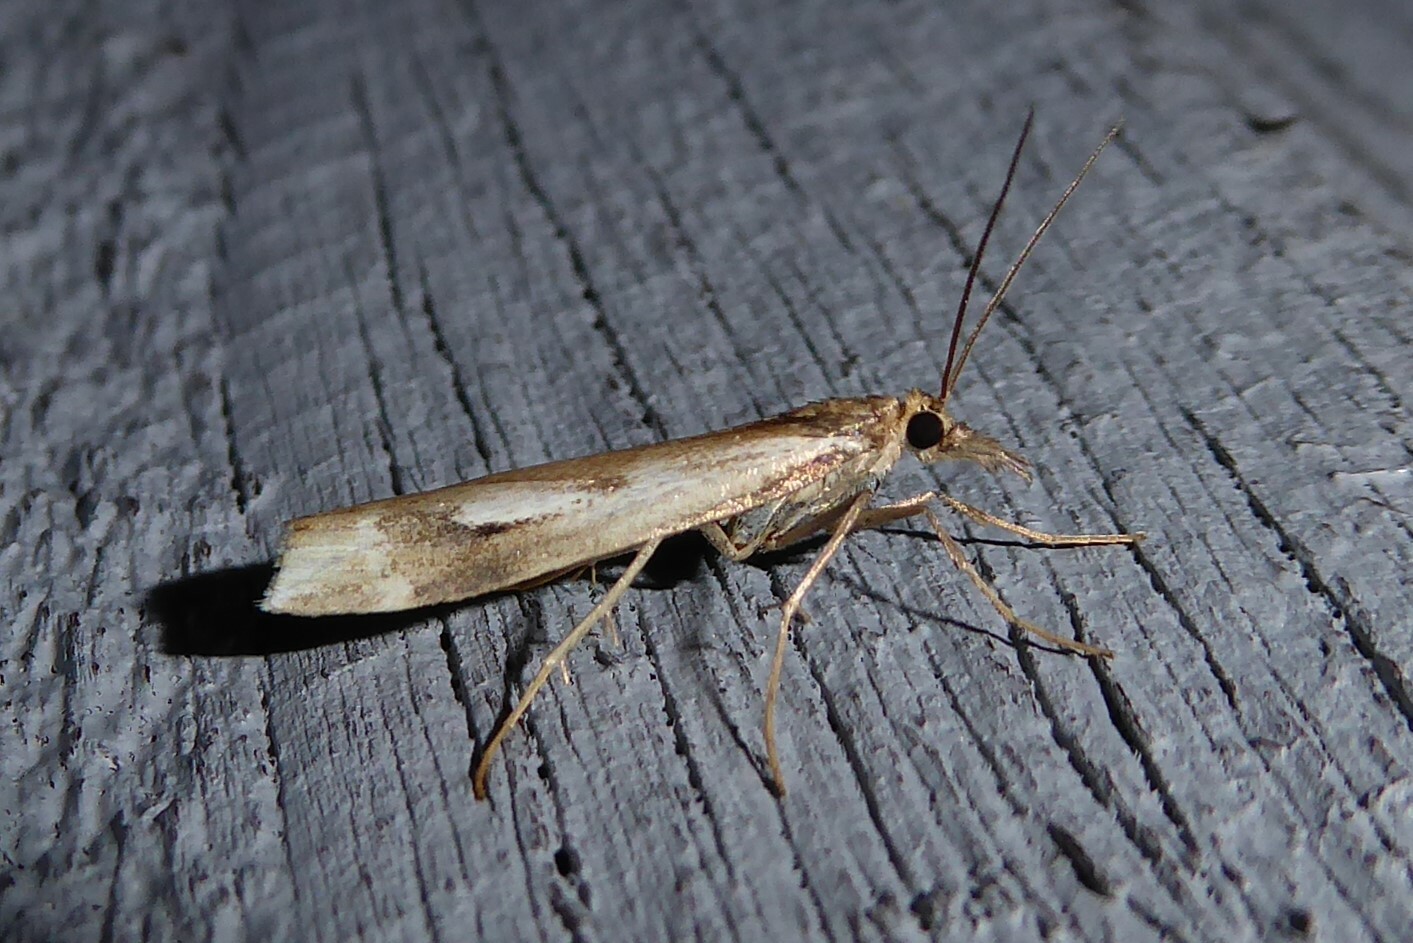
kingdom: Animalia
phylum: Arthropoda
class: Insecta
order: Lepidoptera
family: Crambidae
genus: Orocrambus
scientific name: Orocrambus vulgaris
